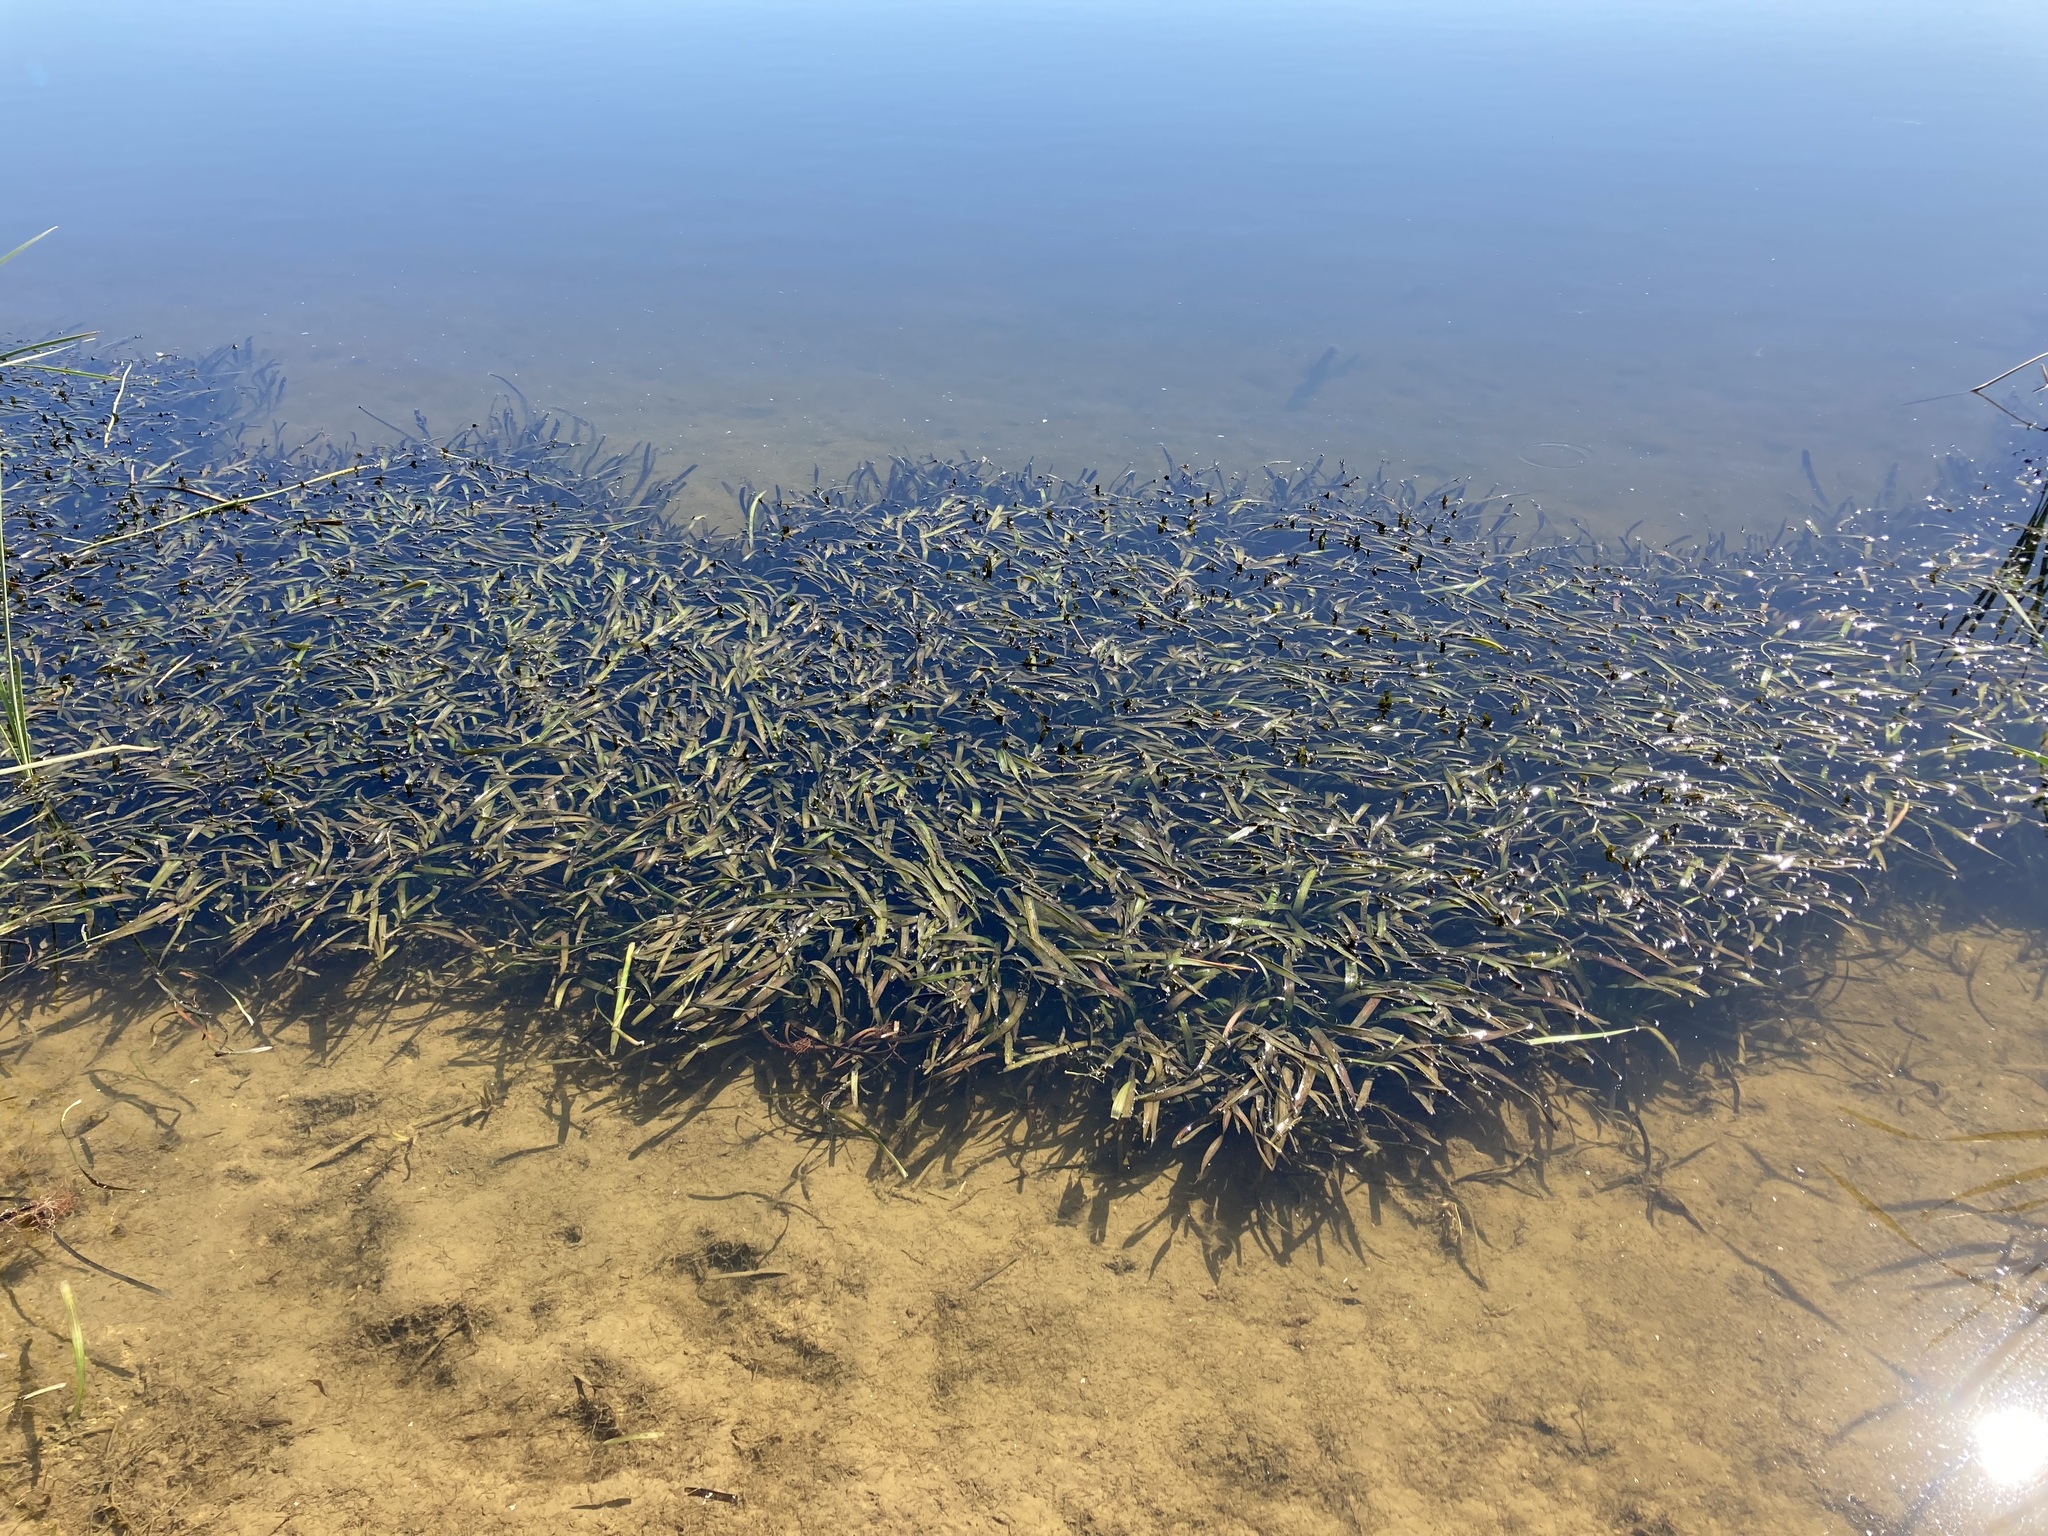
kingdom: Plantae
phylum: Tracheophyta
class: Liliopsida
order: Alismatales
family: Hydrocharitaceae
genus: Vallisneria
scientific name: Vallisneria australis
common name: Australian eelgrass
